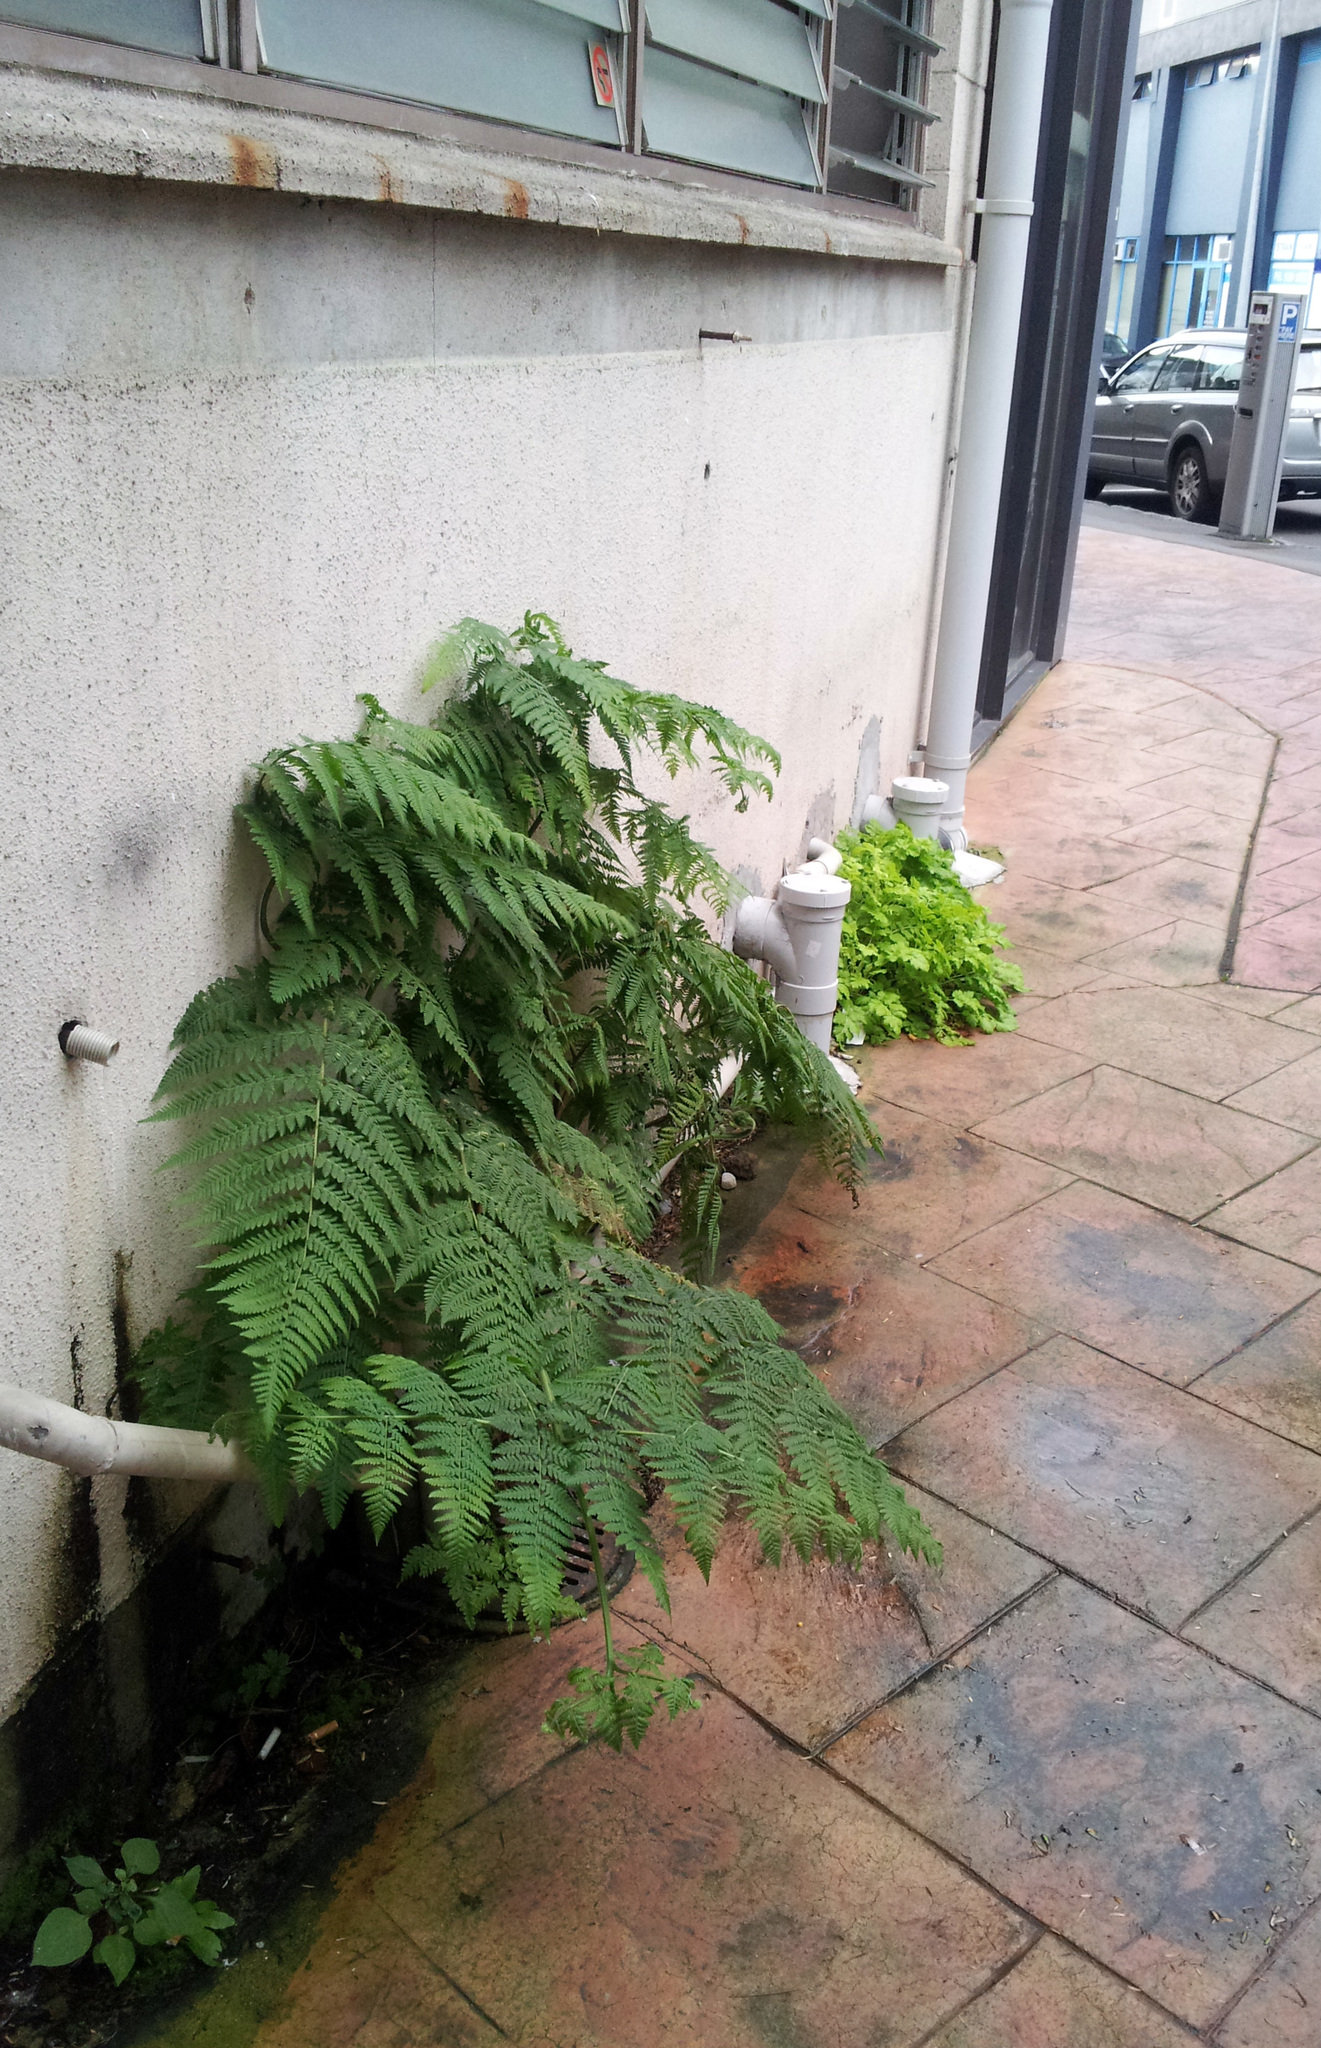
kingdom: Plantae
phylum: Tracheophyta
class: Polypodiopsida
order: Polypodiales
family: Dennstaedtiaceae
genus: Hypolepis
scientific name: Hypolepis dicksonioides
